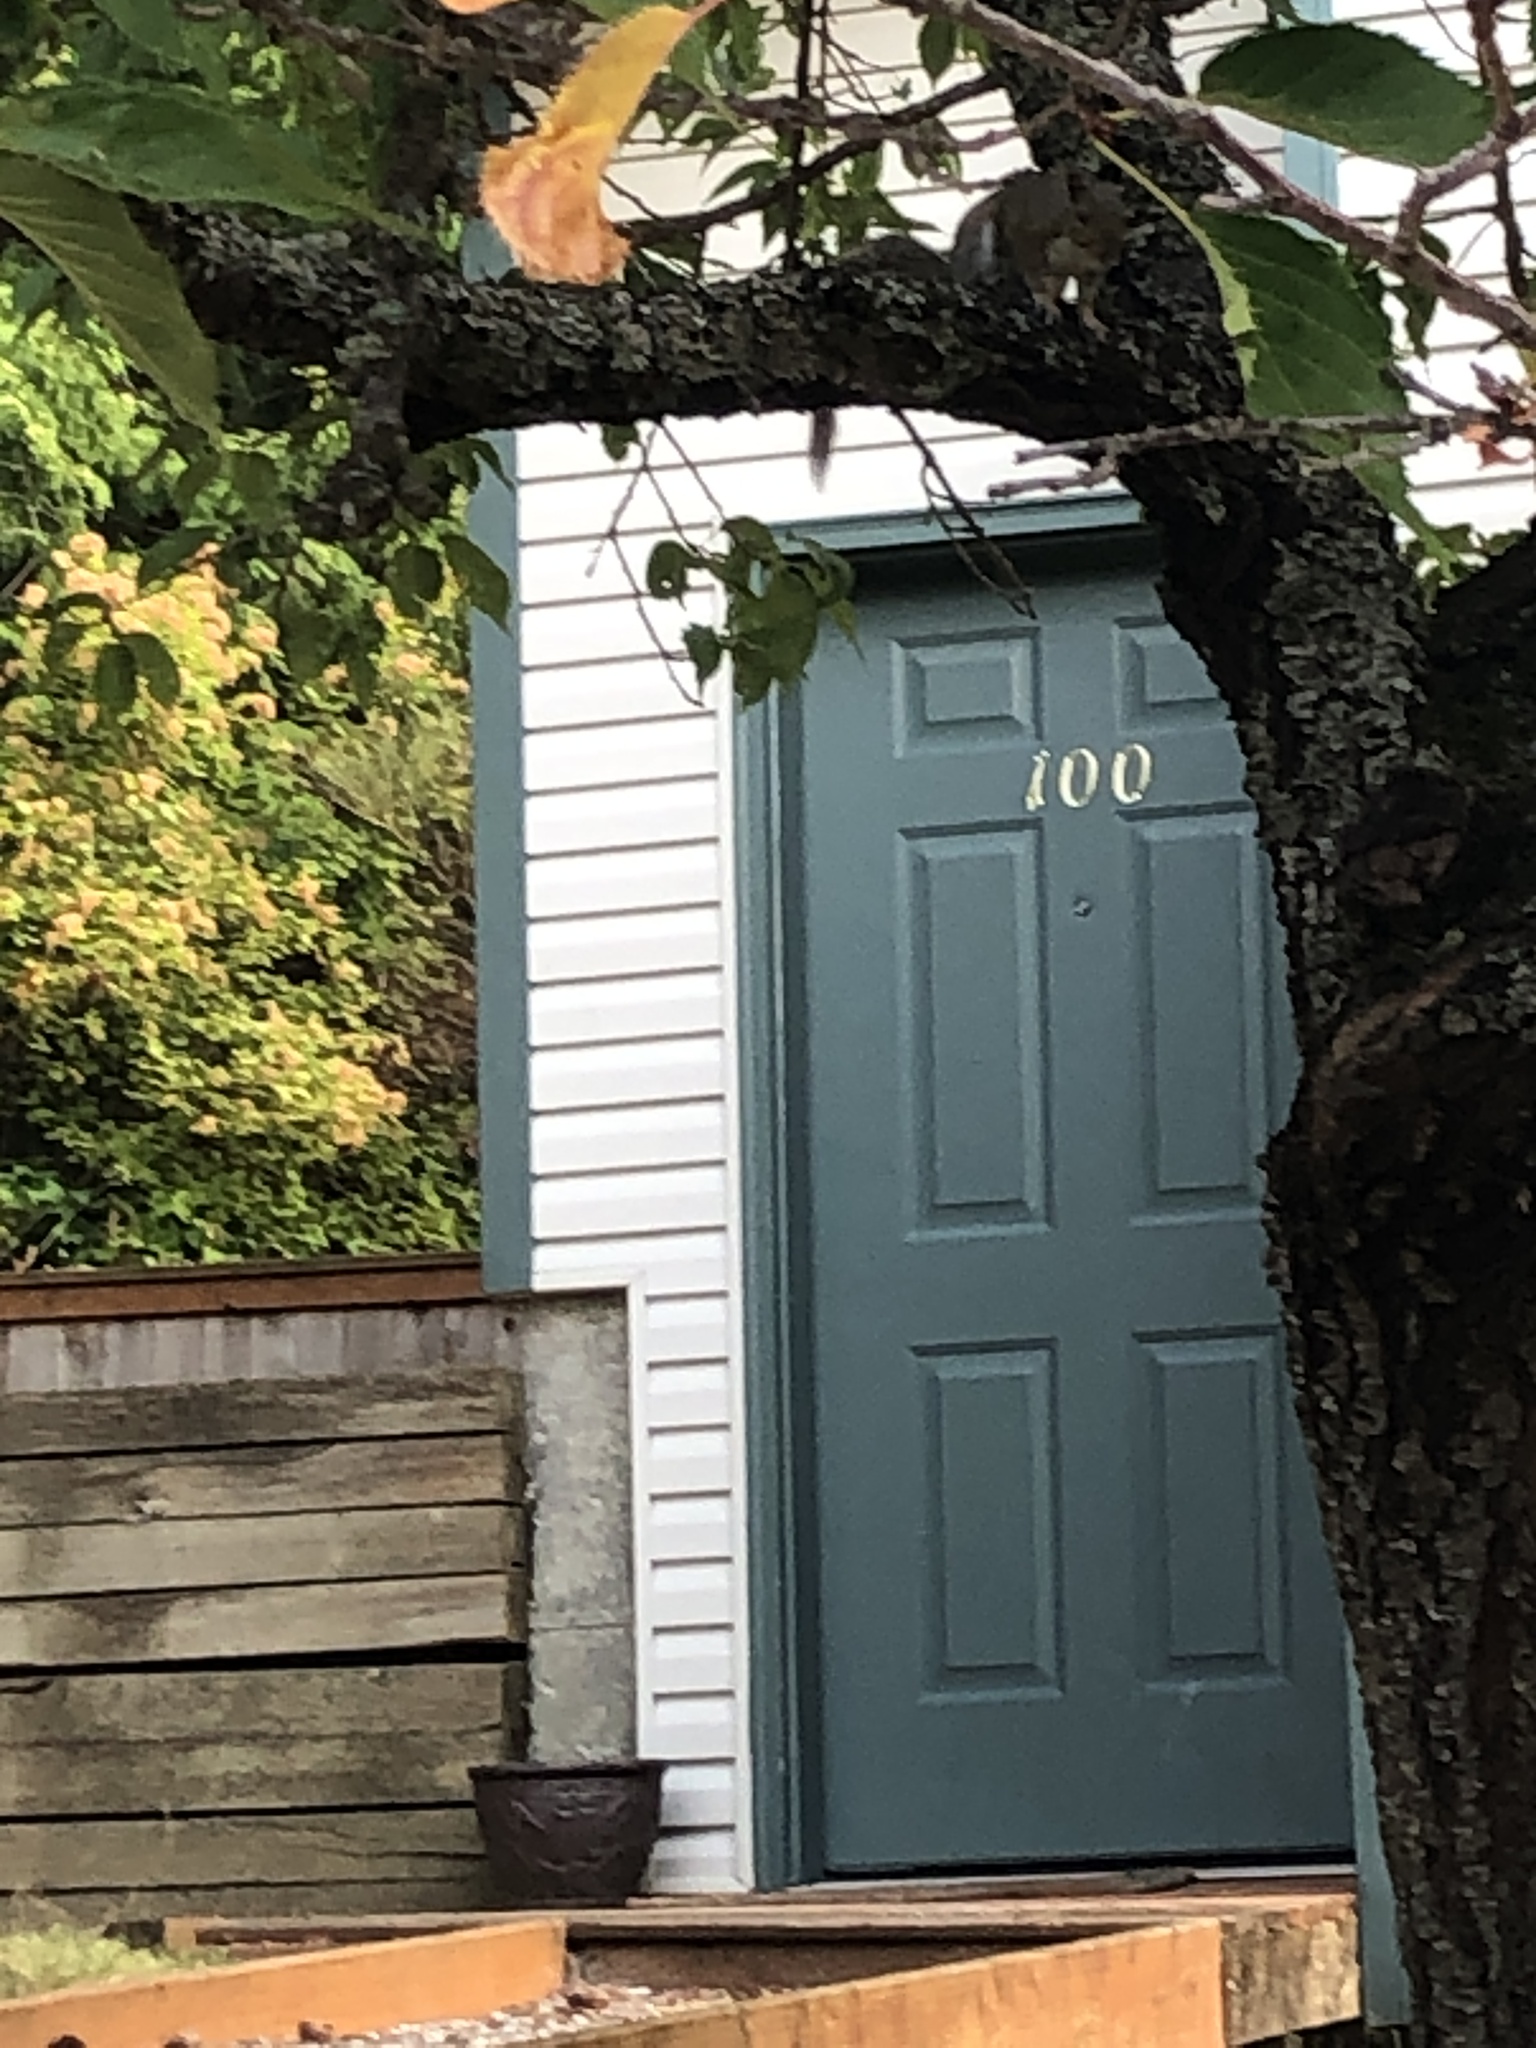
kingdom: Animalia
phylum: Chordata
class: Mammalia
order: Rodentia
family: Sciuridae
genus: Sciurus
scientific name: Sciurus carolinensis
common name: Eastern gray squirrel
